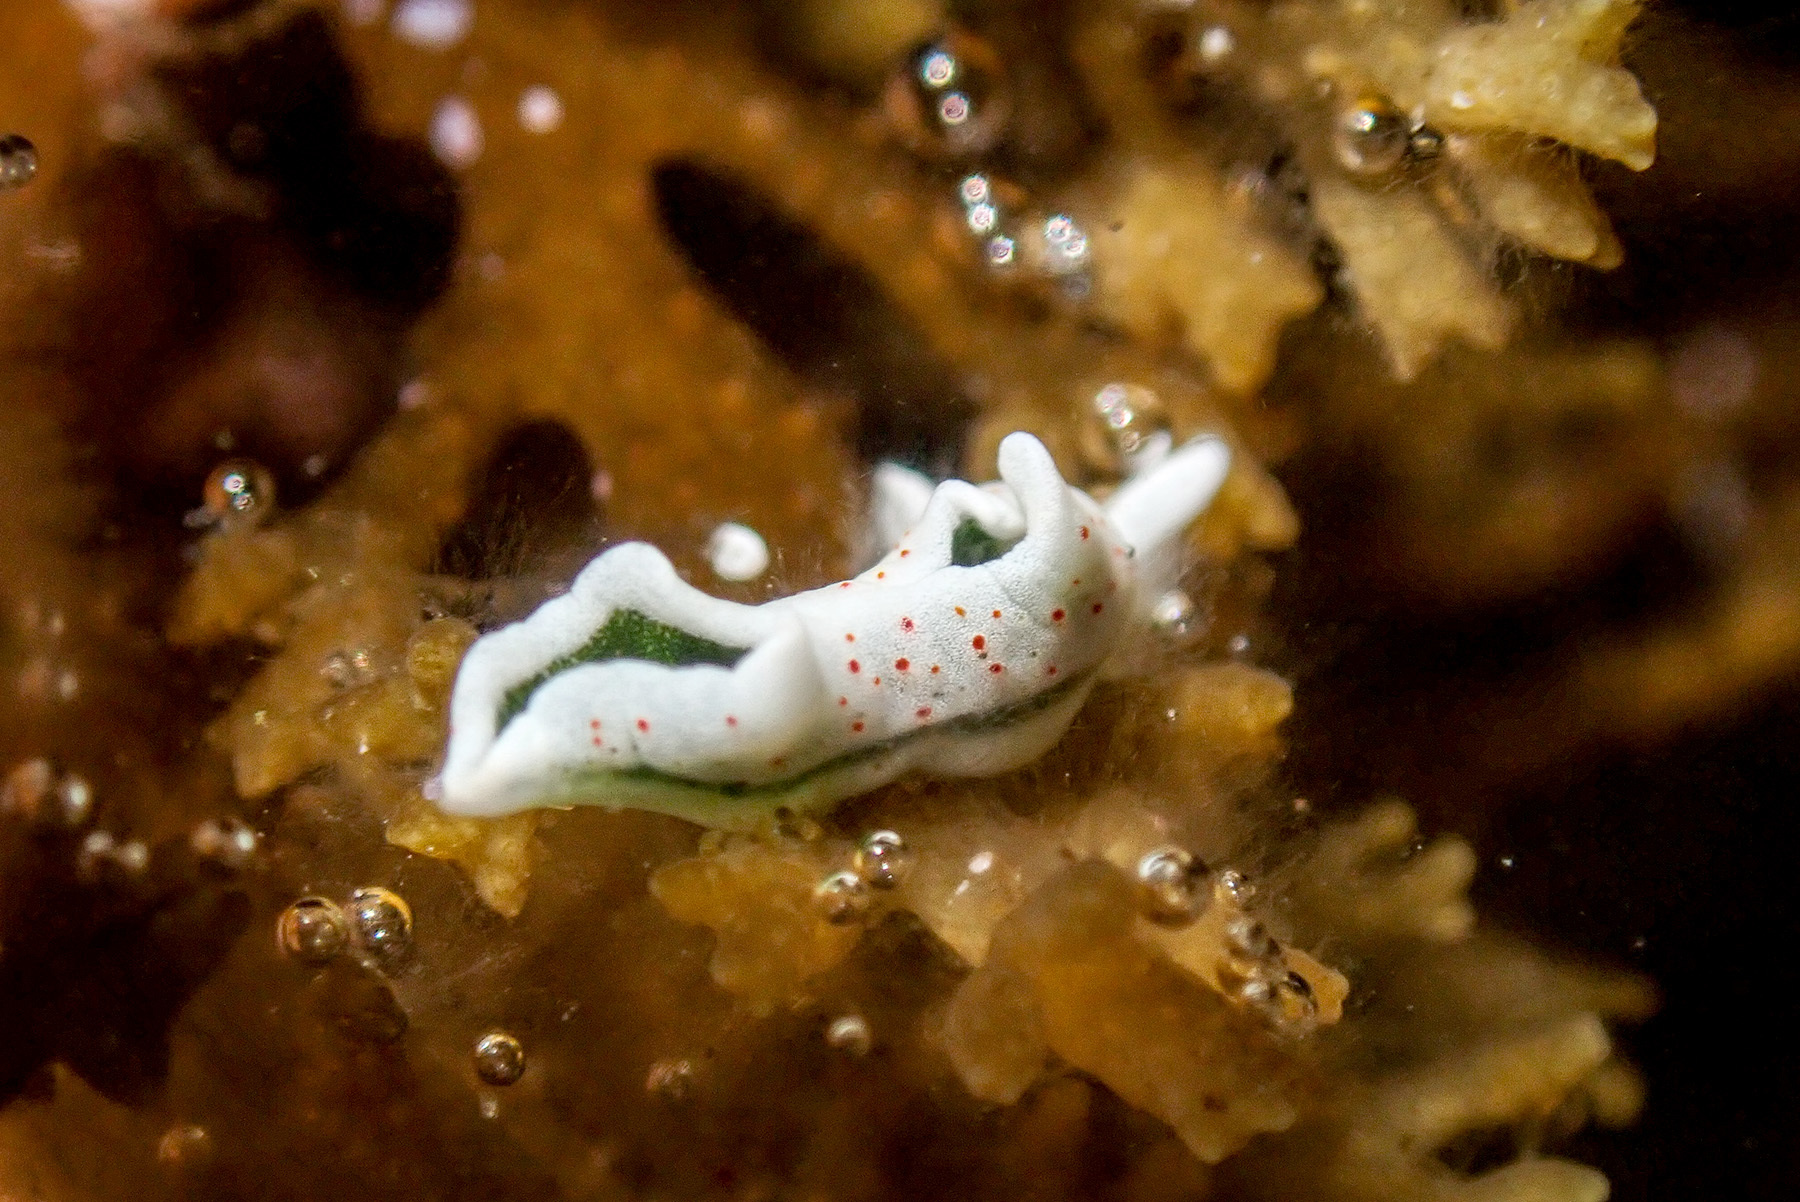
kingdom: Animalia
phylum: Mollusca
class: Gastropoda
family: Plakobranchidae
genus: Elysia
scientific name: Elysia timida
